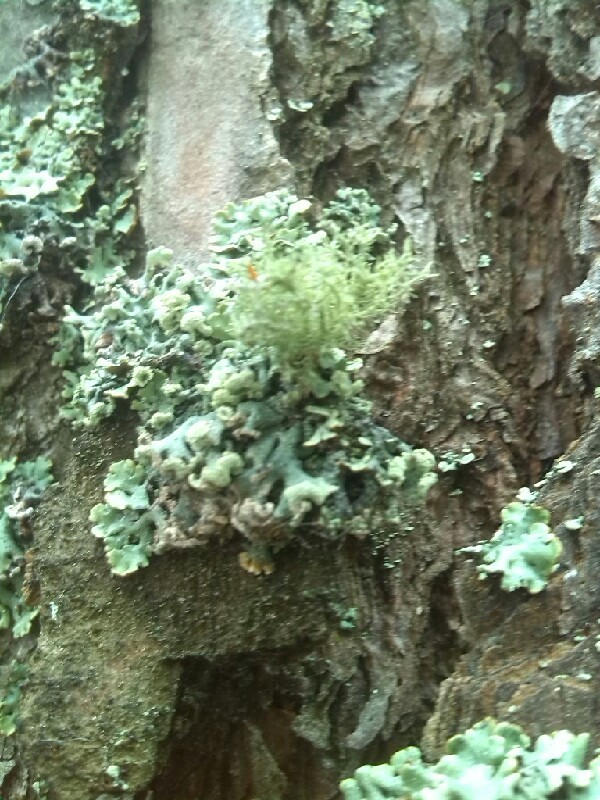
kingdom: Fungi
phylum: Ascomycota
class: Lecanoromycetes
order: Lecanorales
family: Parmeliaceae
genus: Usnea
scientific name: Usnea
